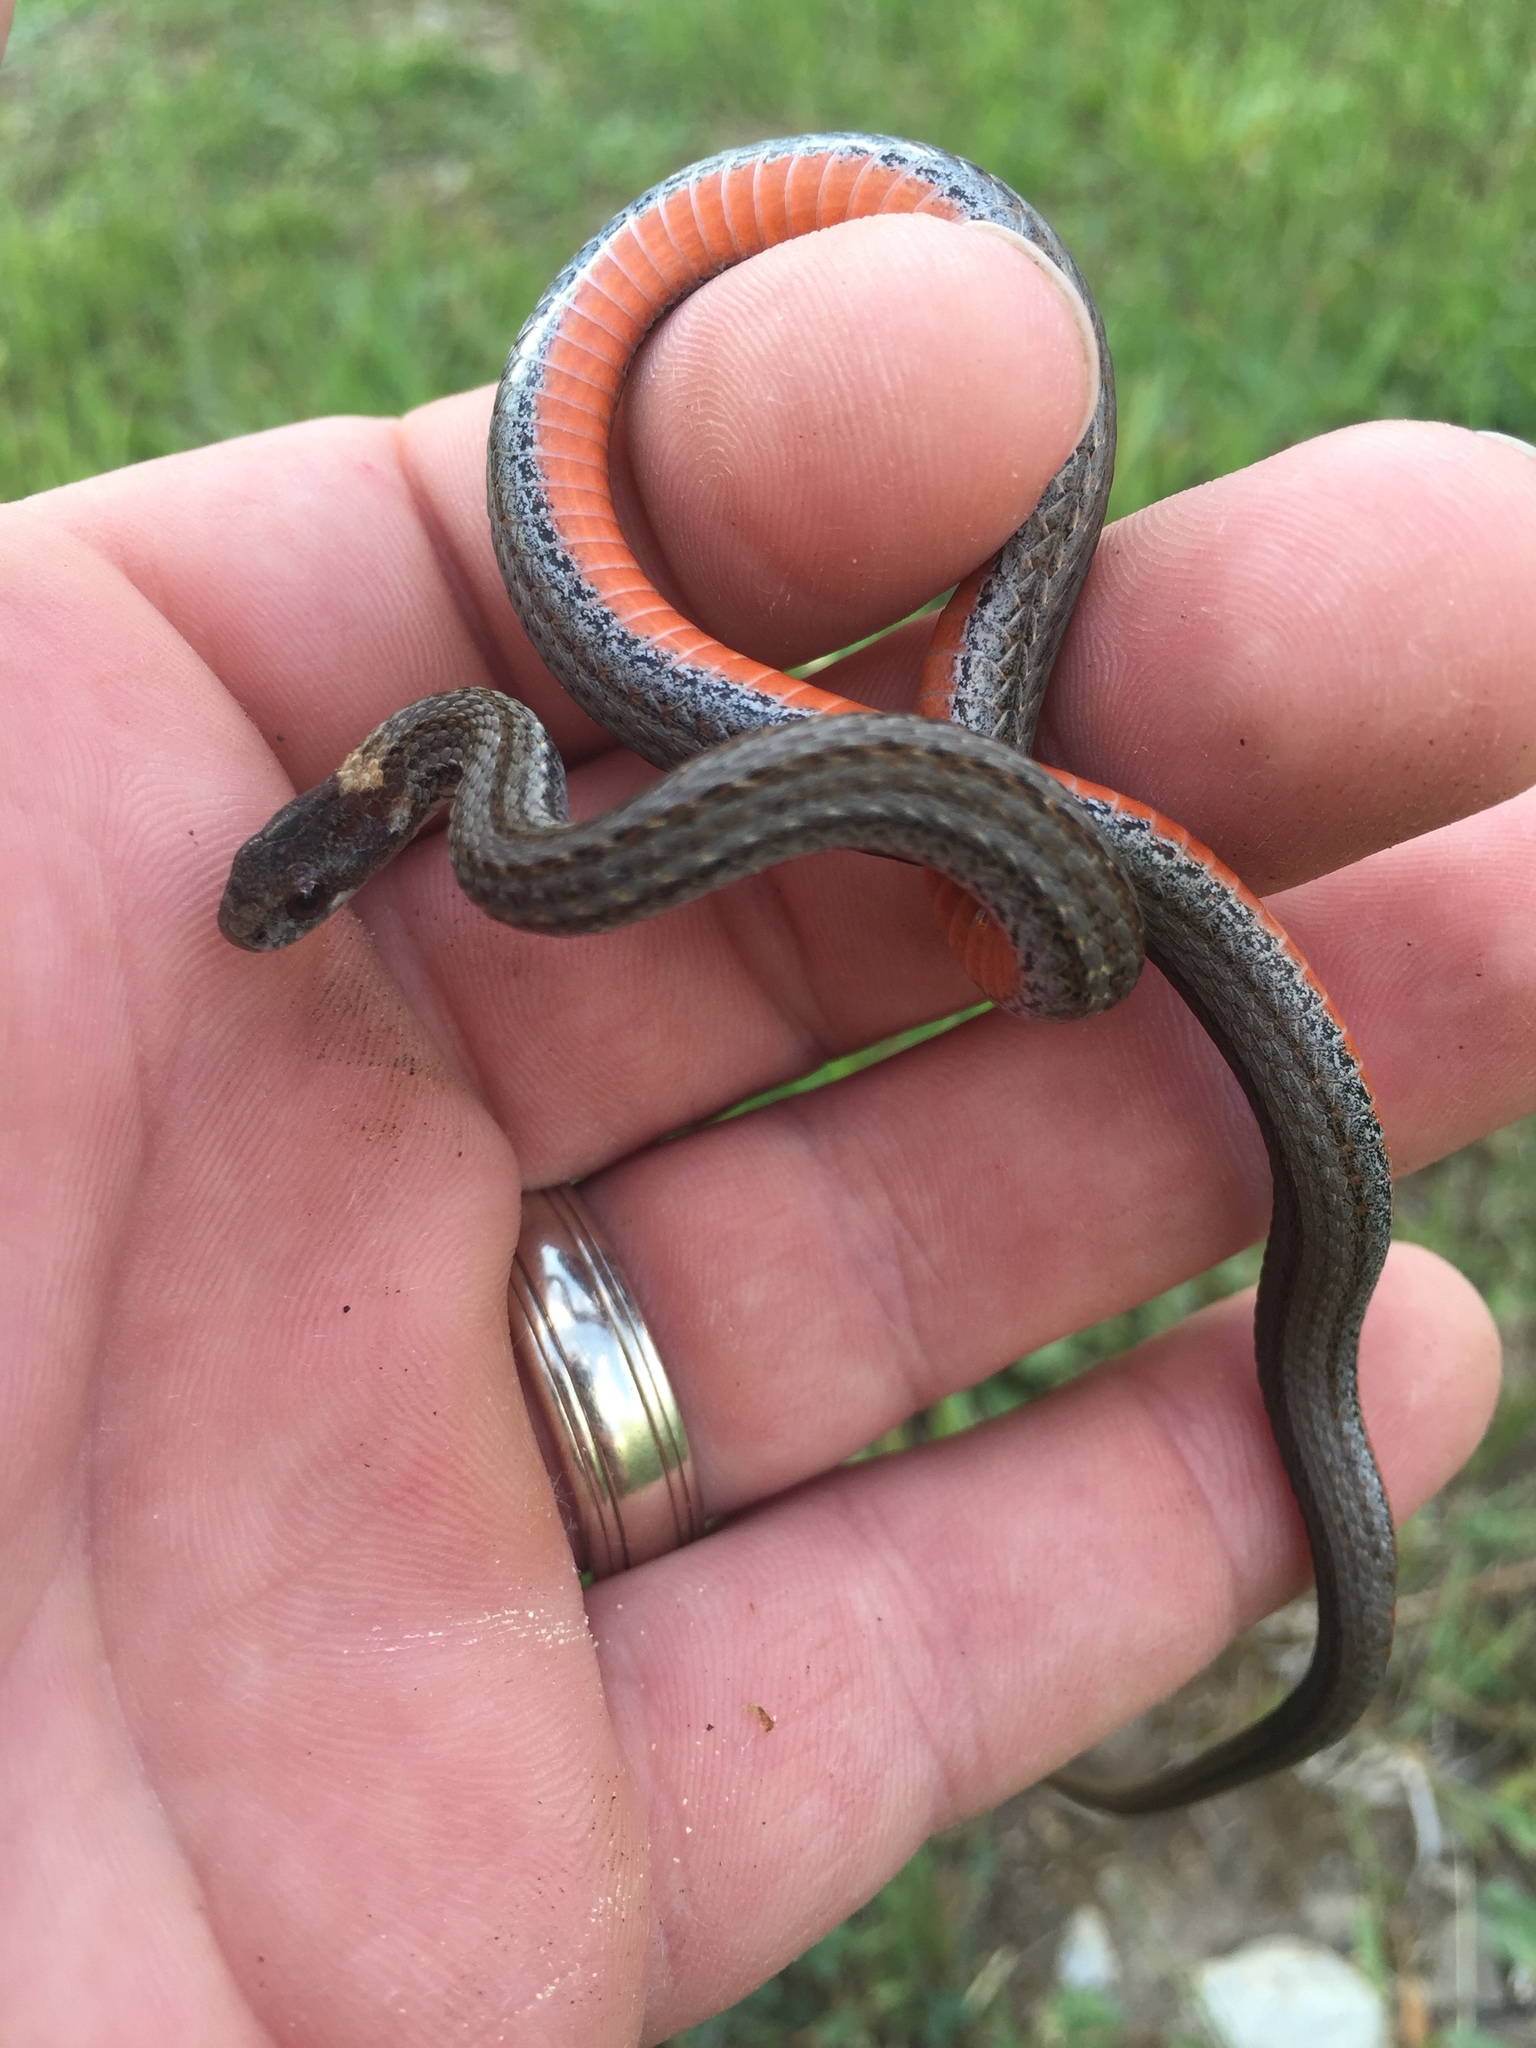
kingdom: Animalia
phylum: Chordata
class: Squamata
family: Colubridae
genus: Storeria
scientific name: Storeria occipitomaculata
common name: Redbelly snake
